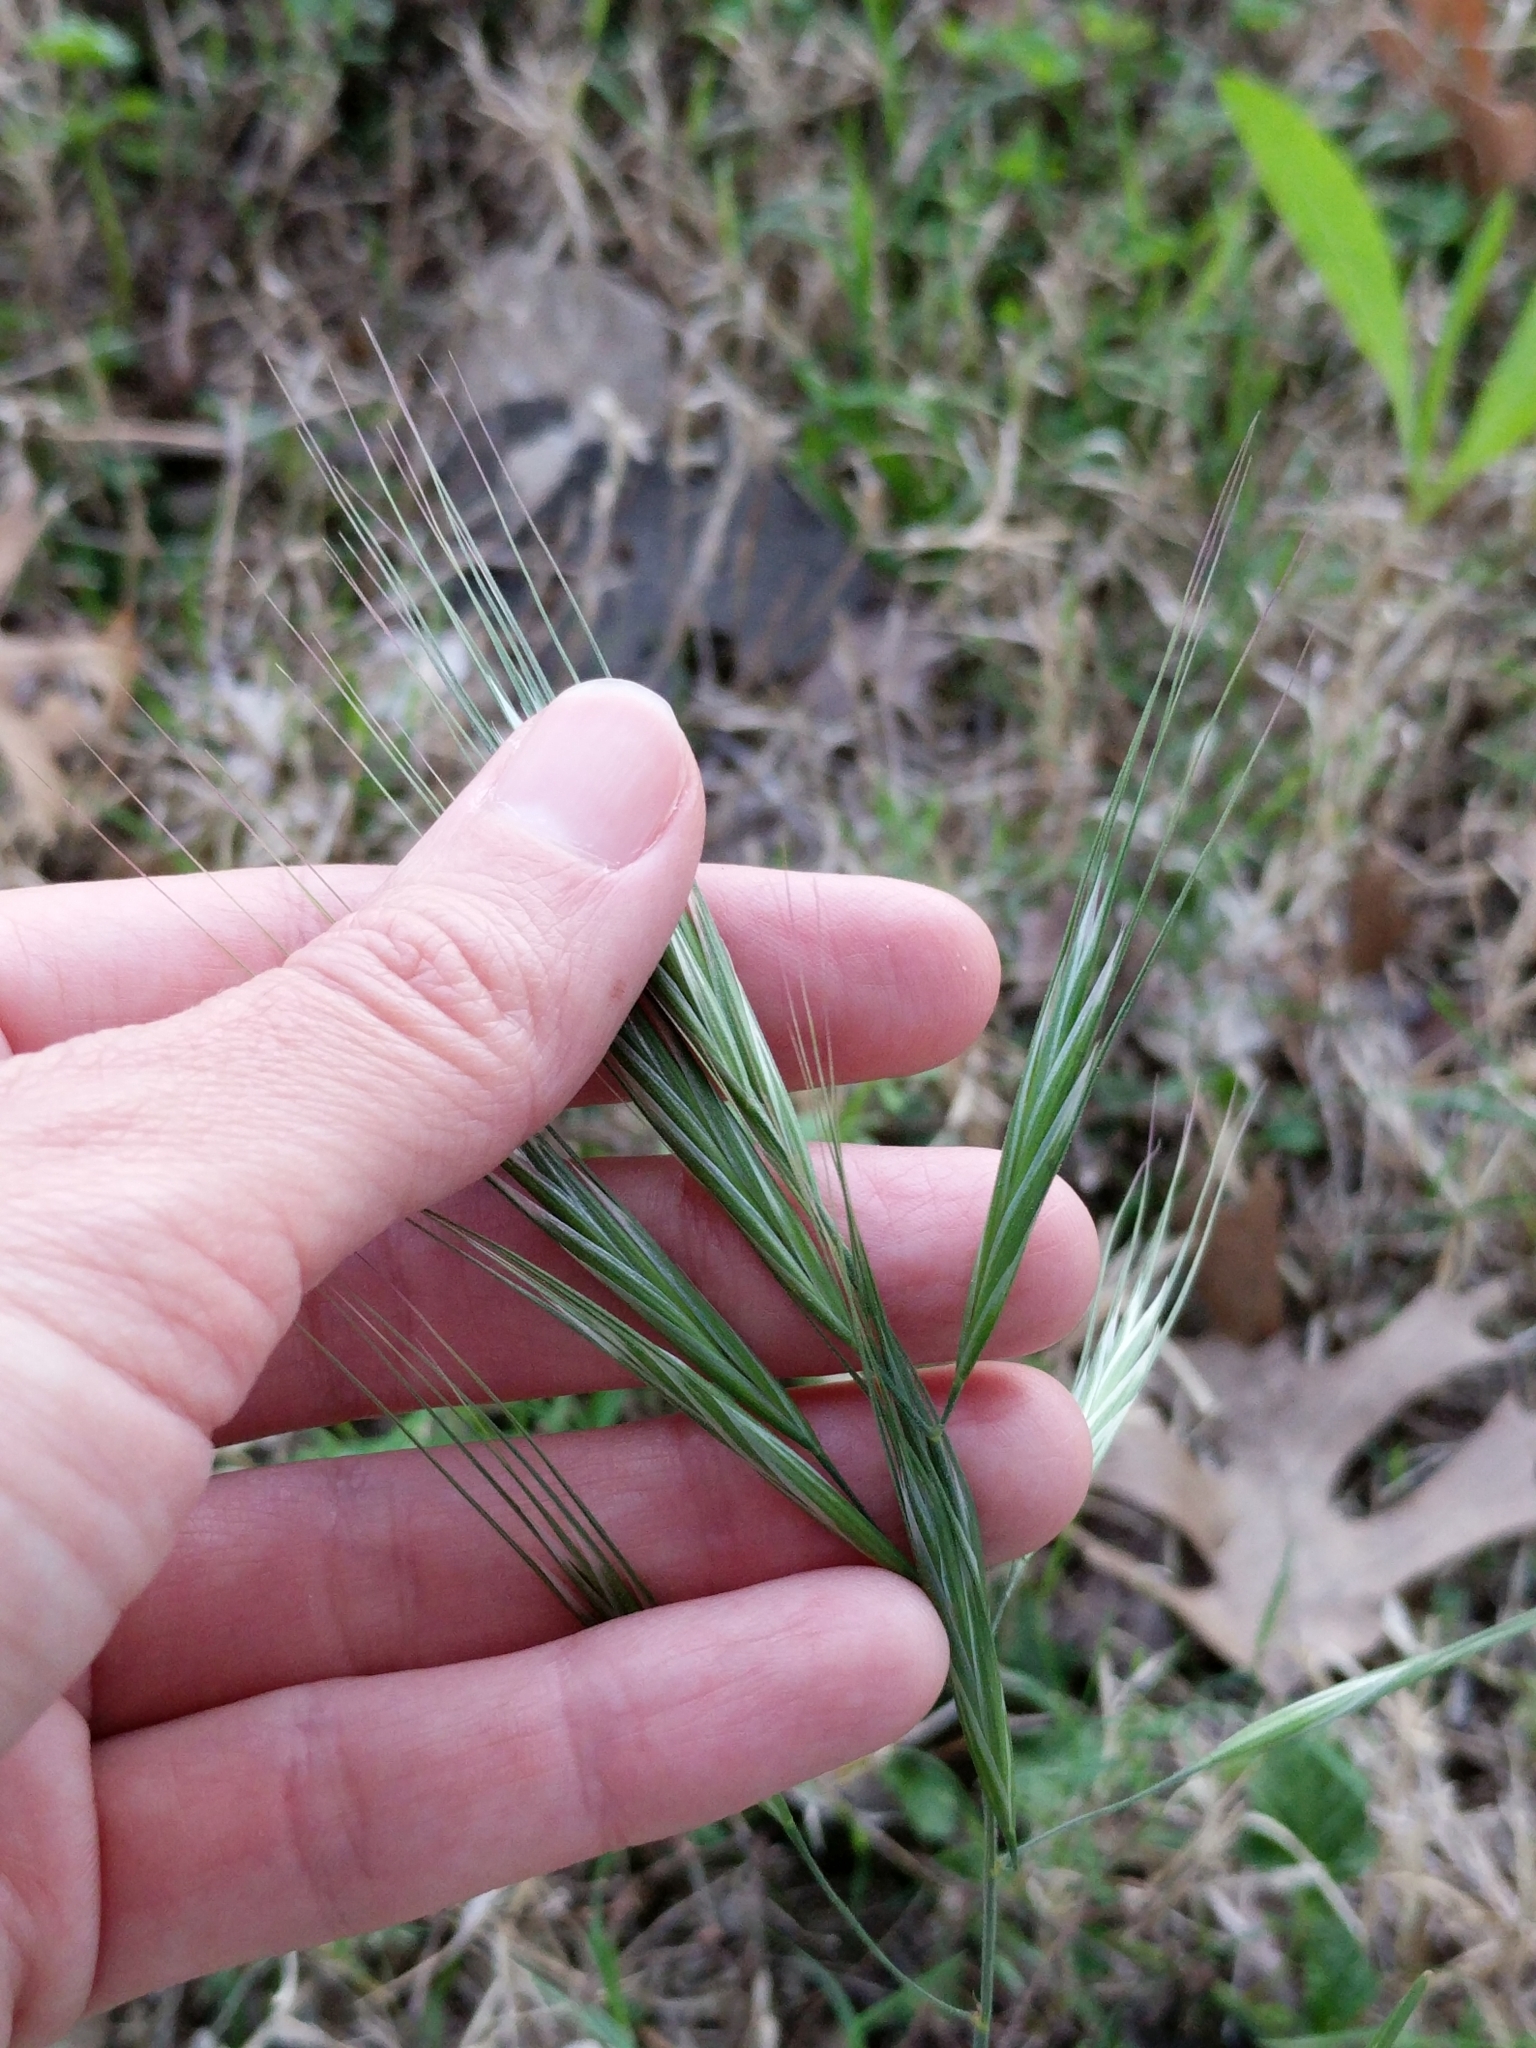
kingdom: Plantae
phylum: Tracheophyta
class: Liliopsida
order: Poales
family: Poaceae
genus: Bromus
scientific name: Bromus diandrus
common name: Ripgut brome
